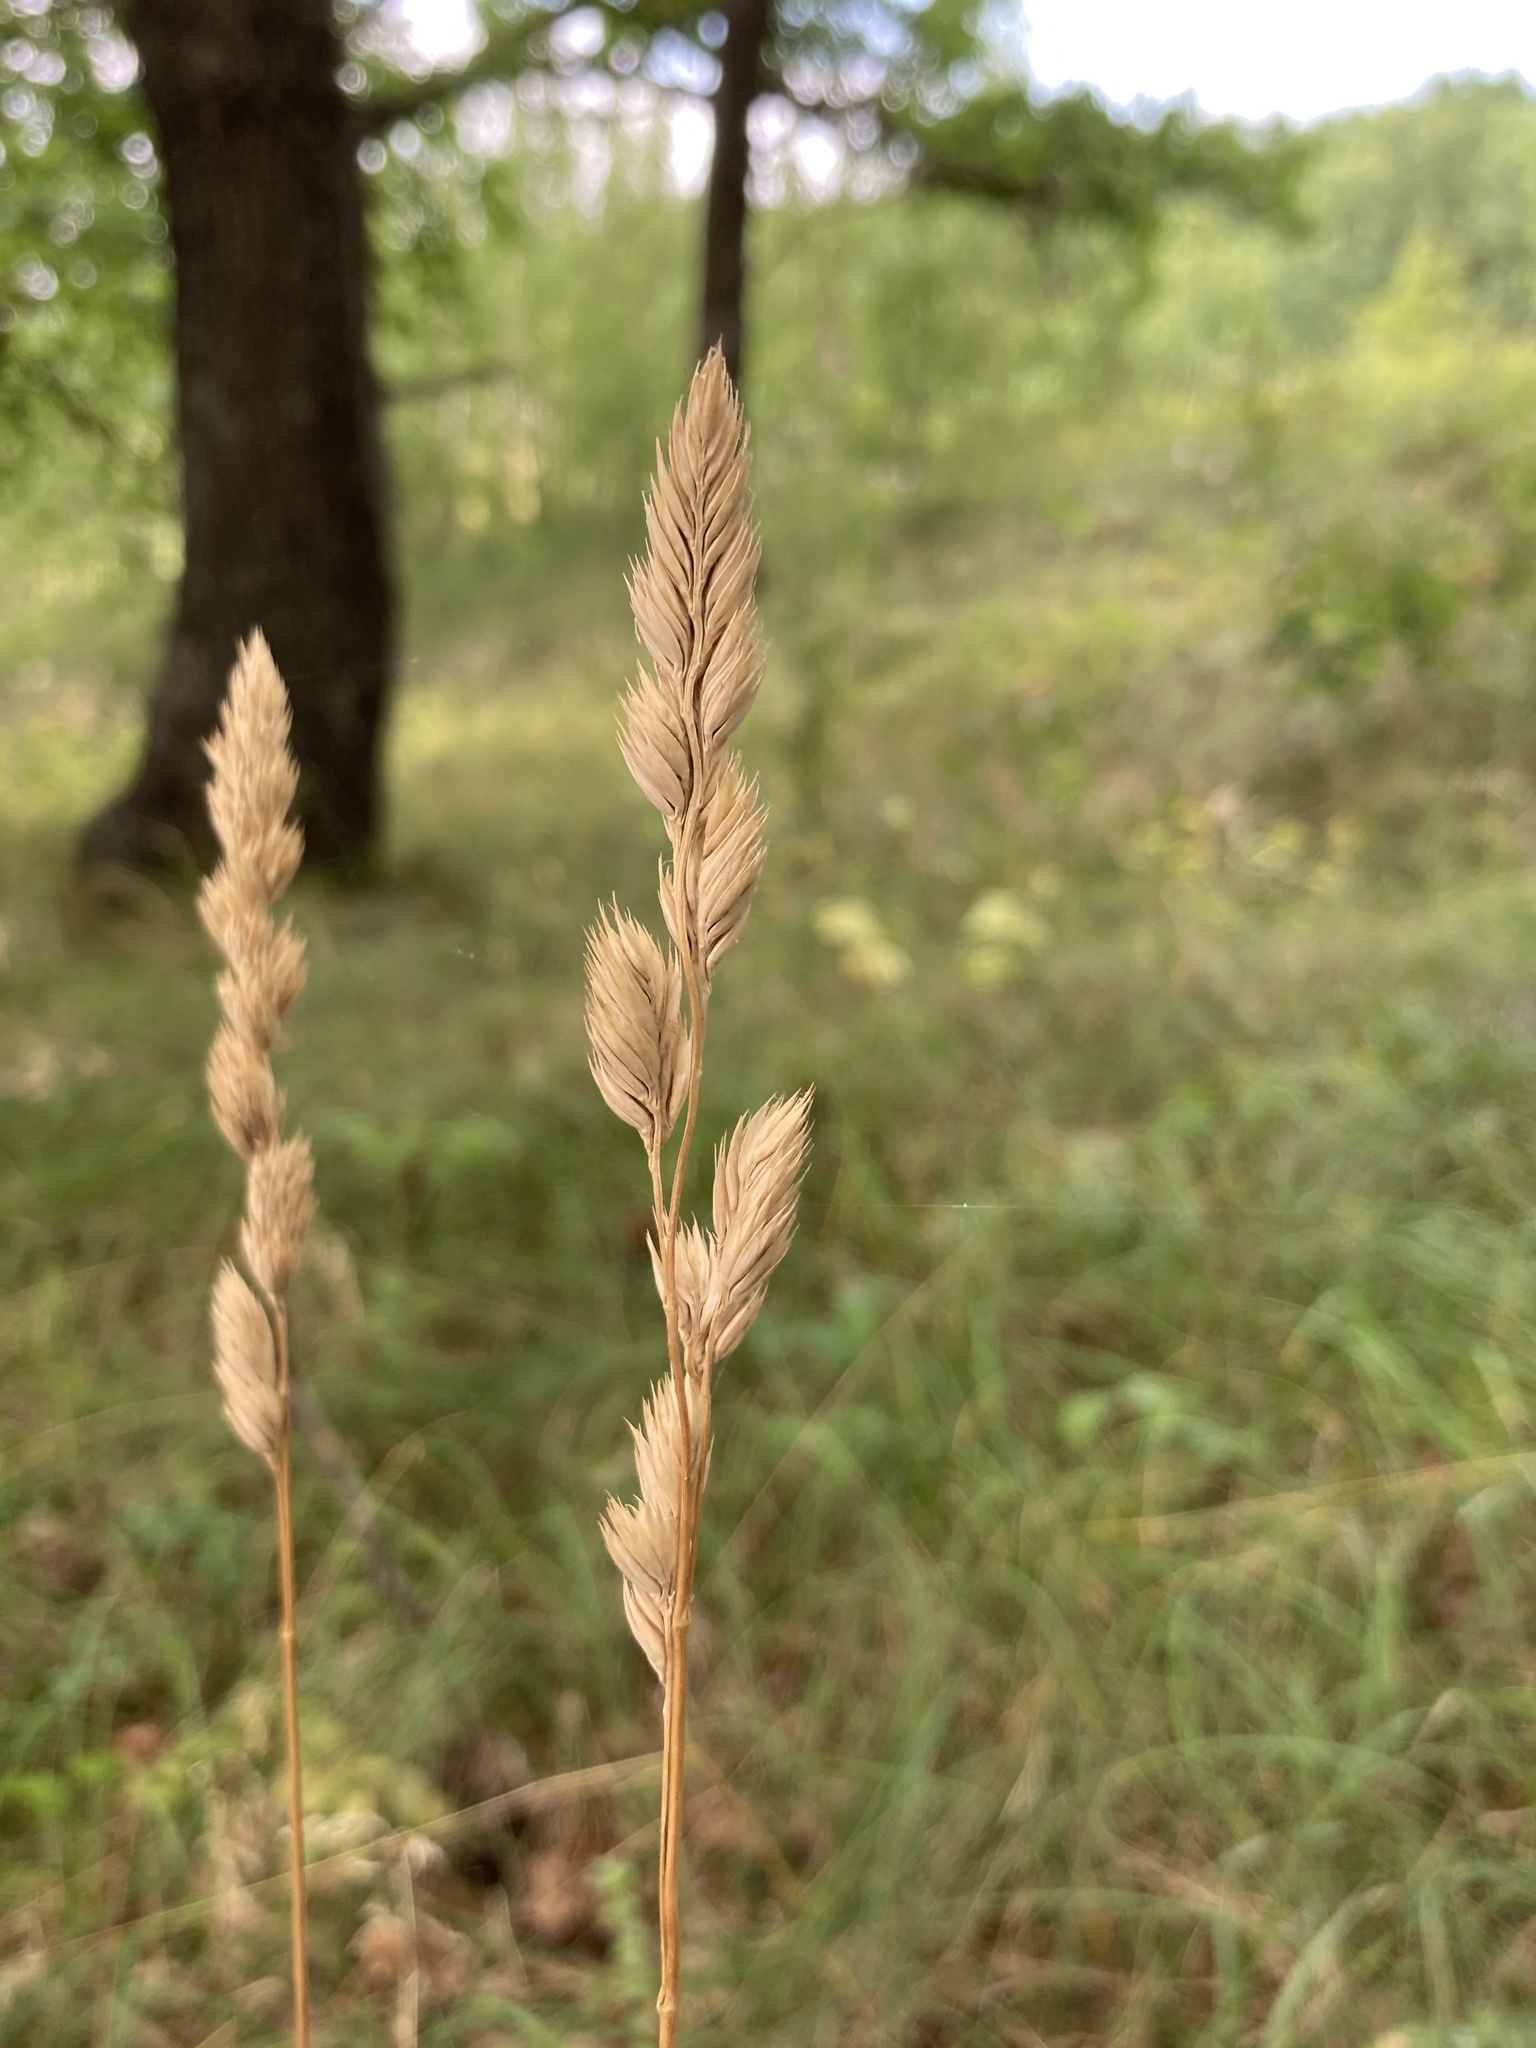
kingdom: Plantae
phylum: Tracheophyta
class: Liliopsida
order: Poales
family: Poaceae
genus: Dactylis
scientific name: Dactylis glomerata
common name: Orchardgrass
